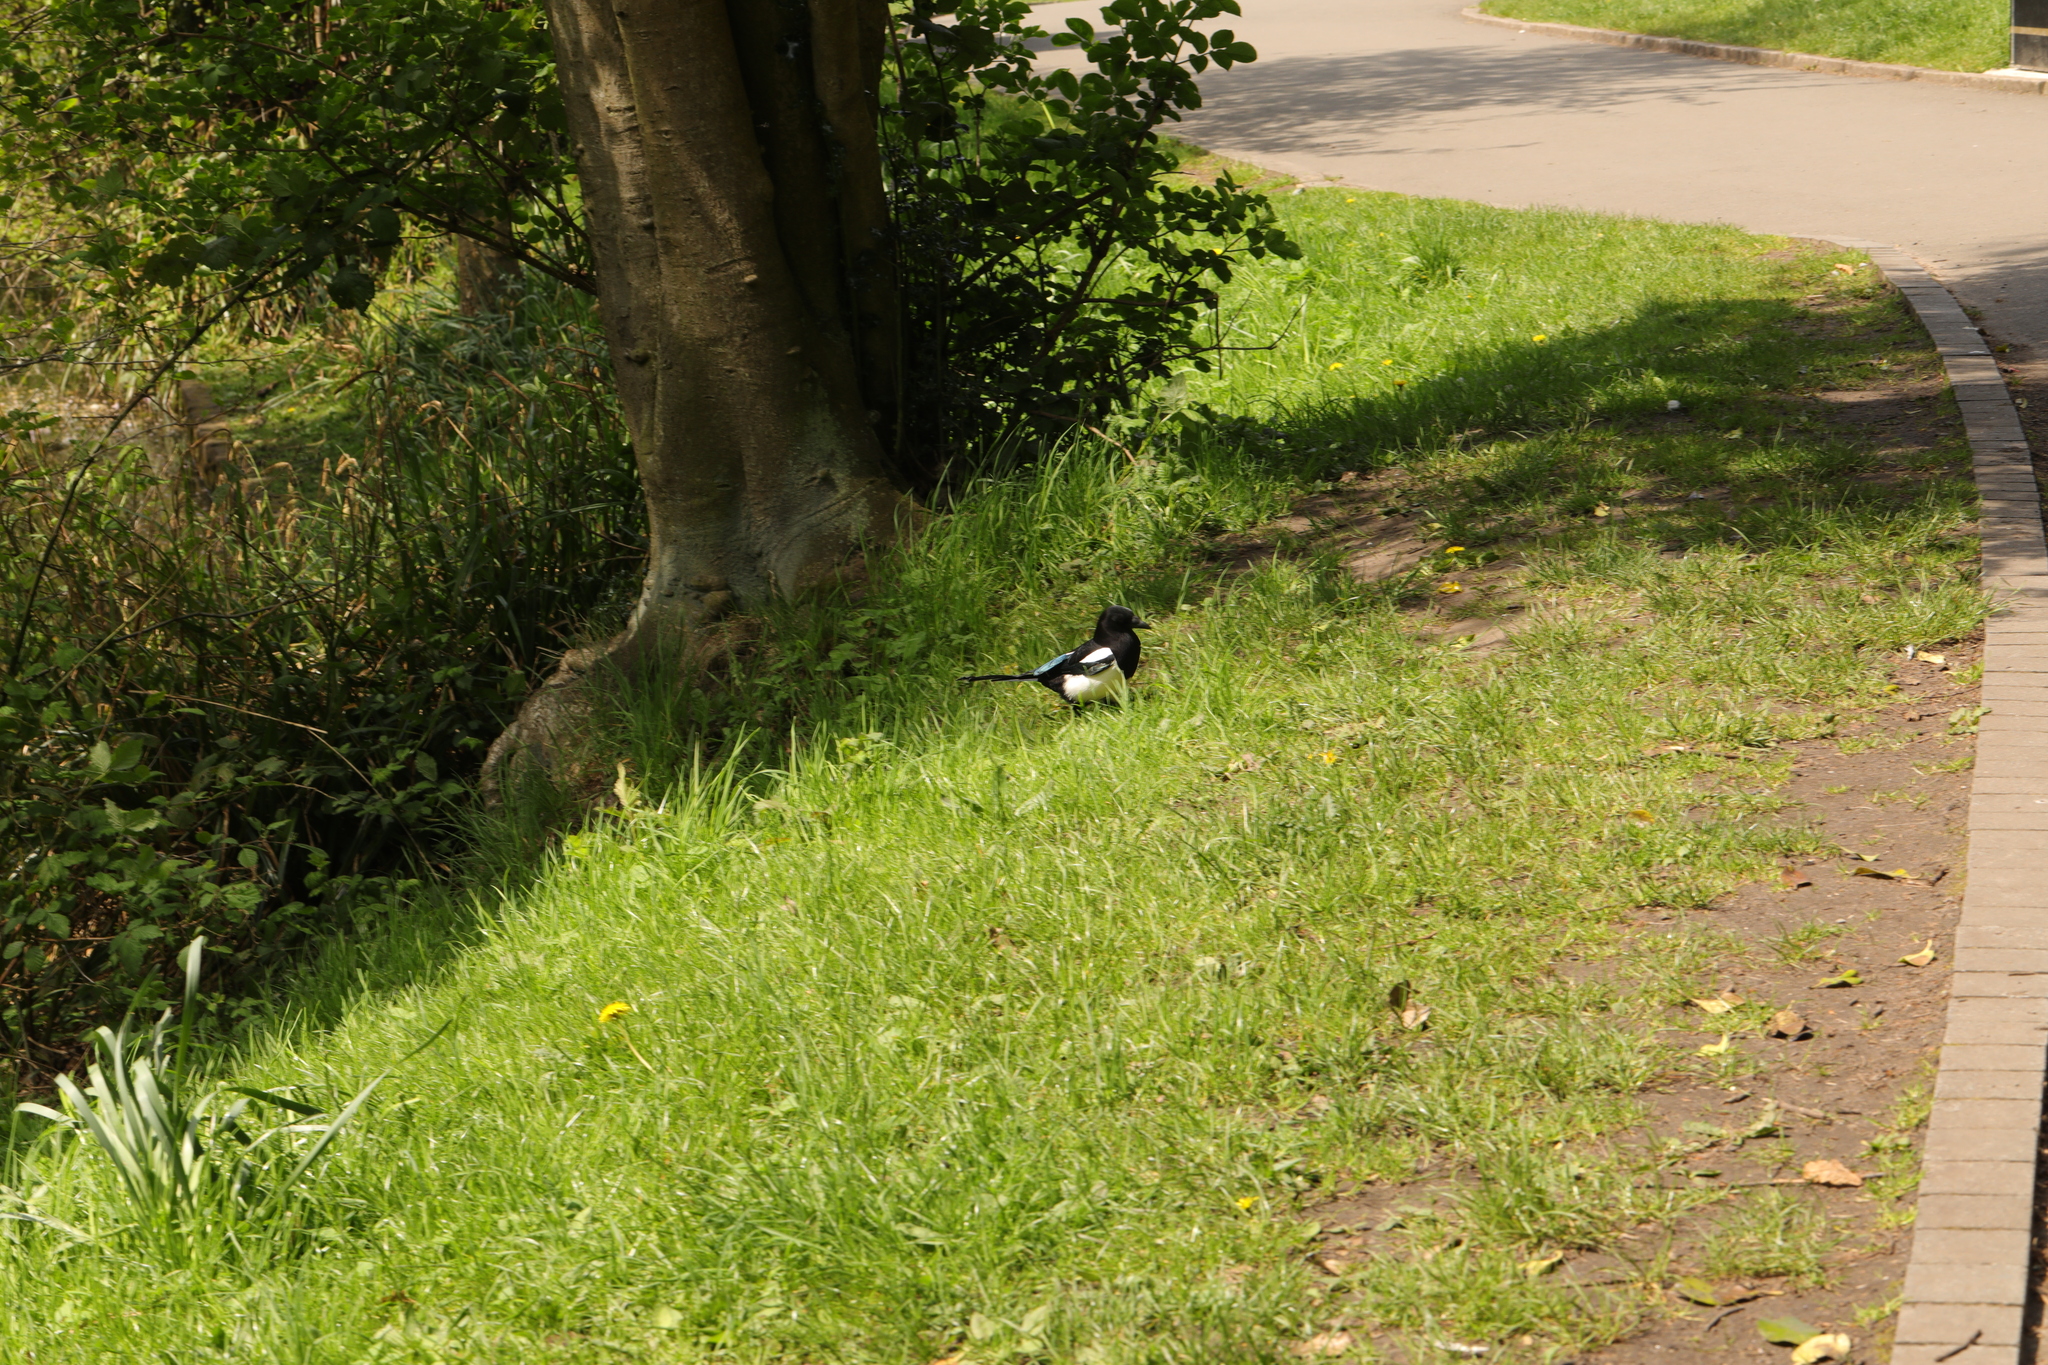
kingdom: Animalia
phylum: Chordata
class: Aves
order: Passeriformes
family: Corvidae
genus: Pica
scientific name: Pica pica
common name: Eurasian magpie
